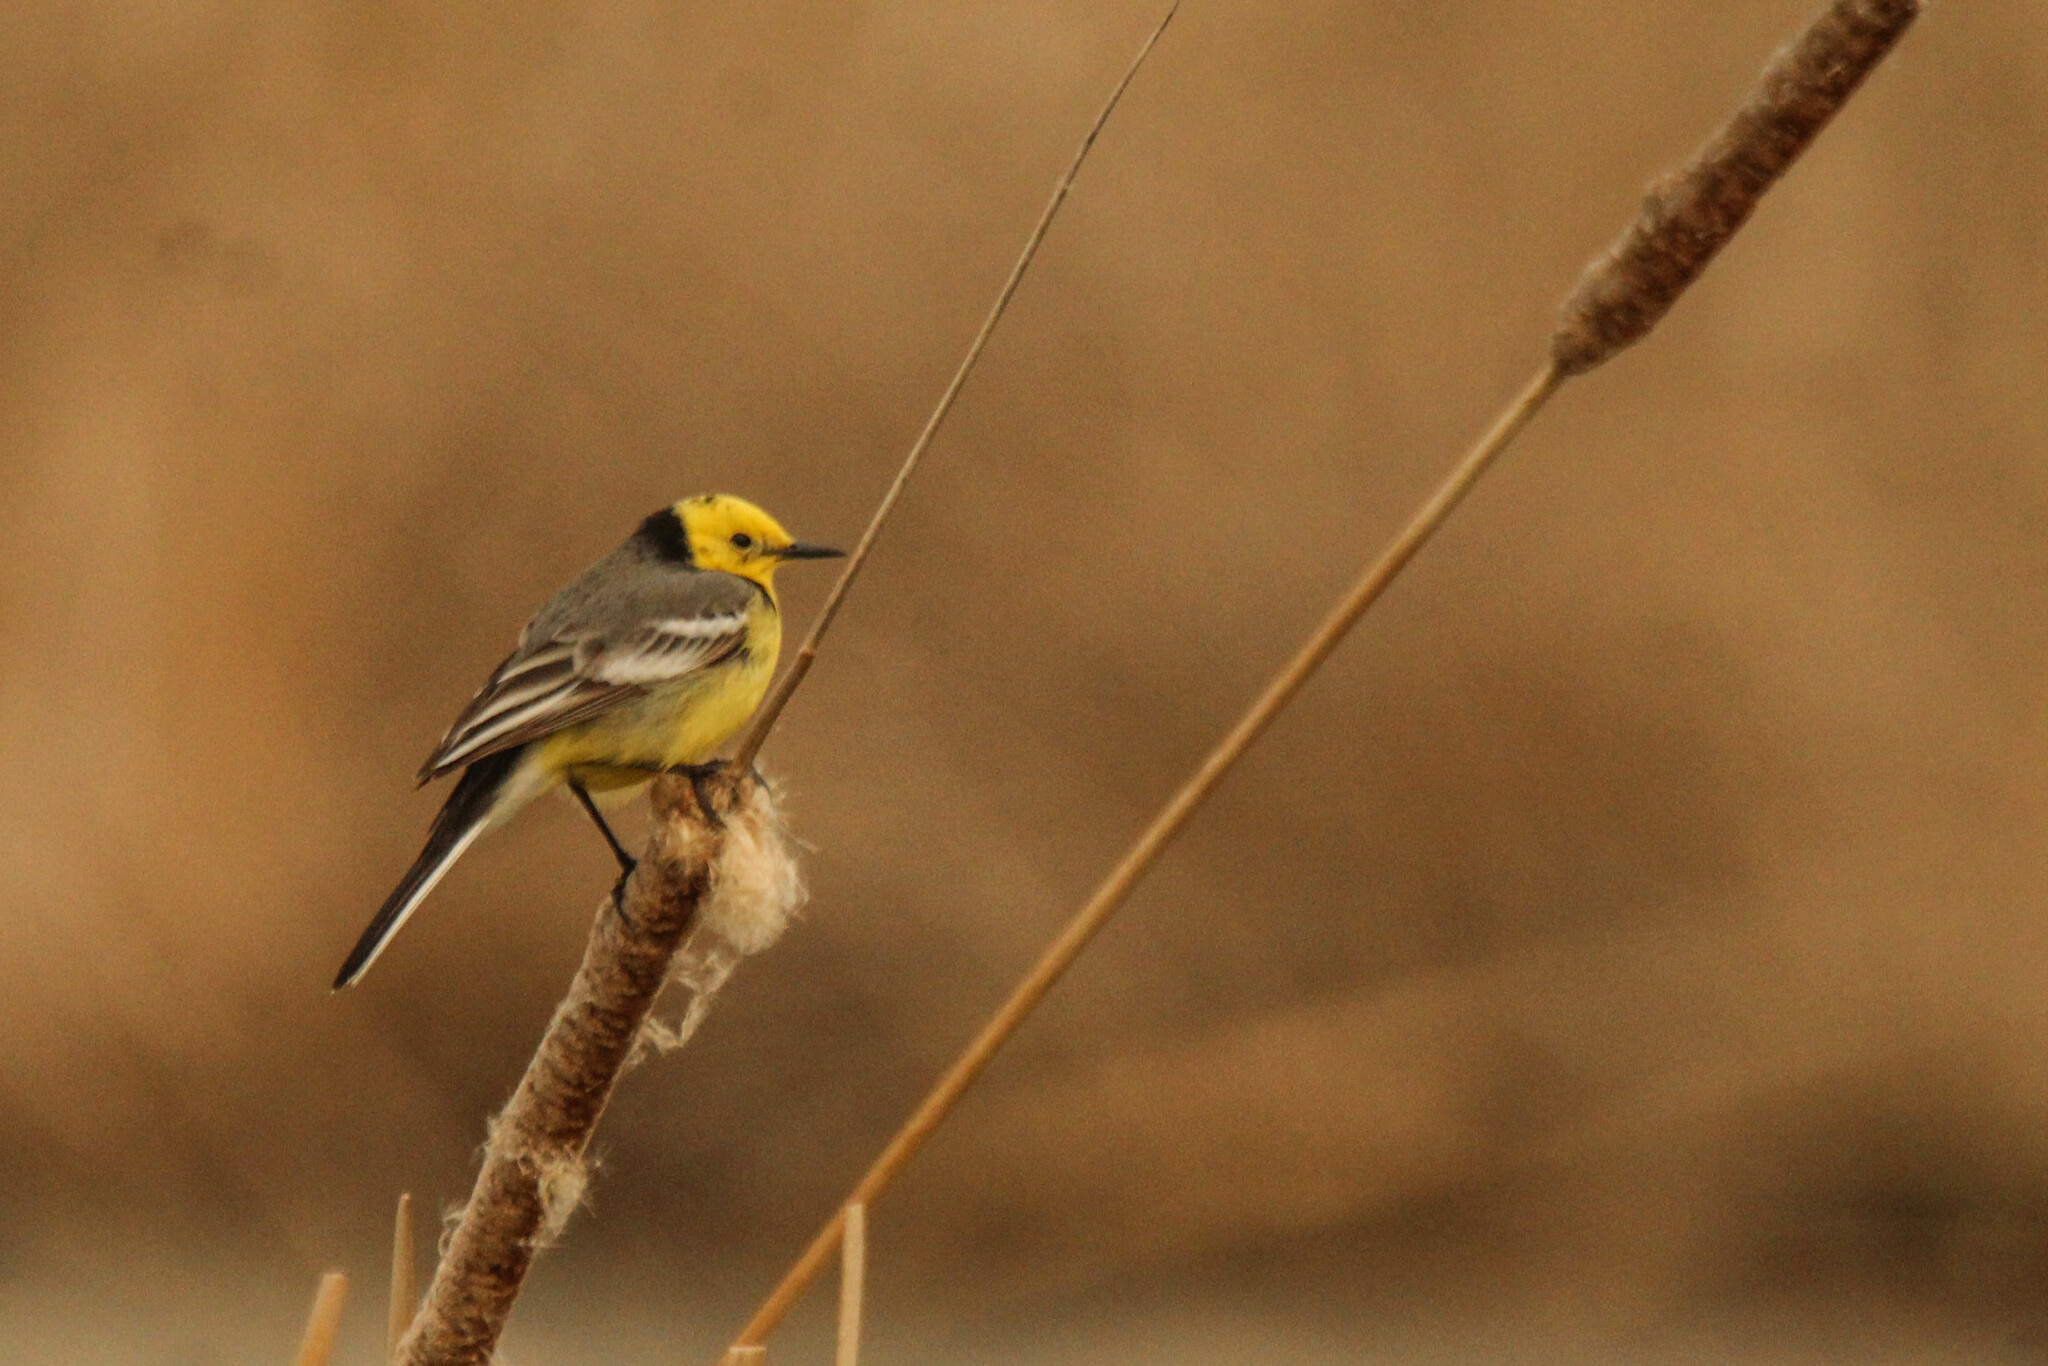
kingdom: Animalia
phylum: Chordata
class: Aves
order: Passeriformes
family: Motacillidae
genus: Motacilla
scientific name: Motacilla citreola
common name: Citrine wagtail
